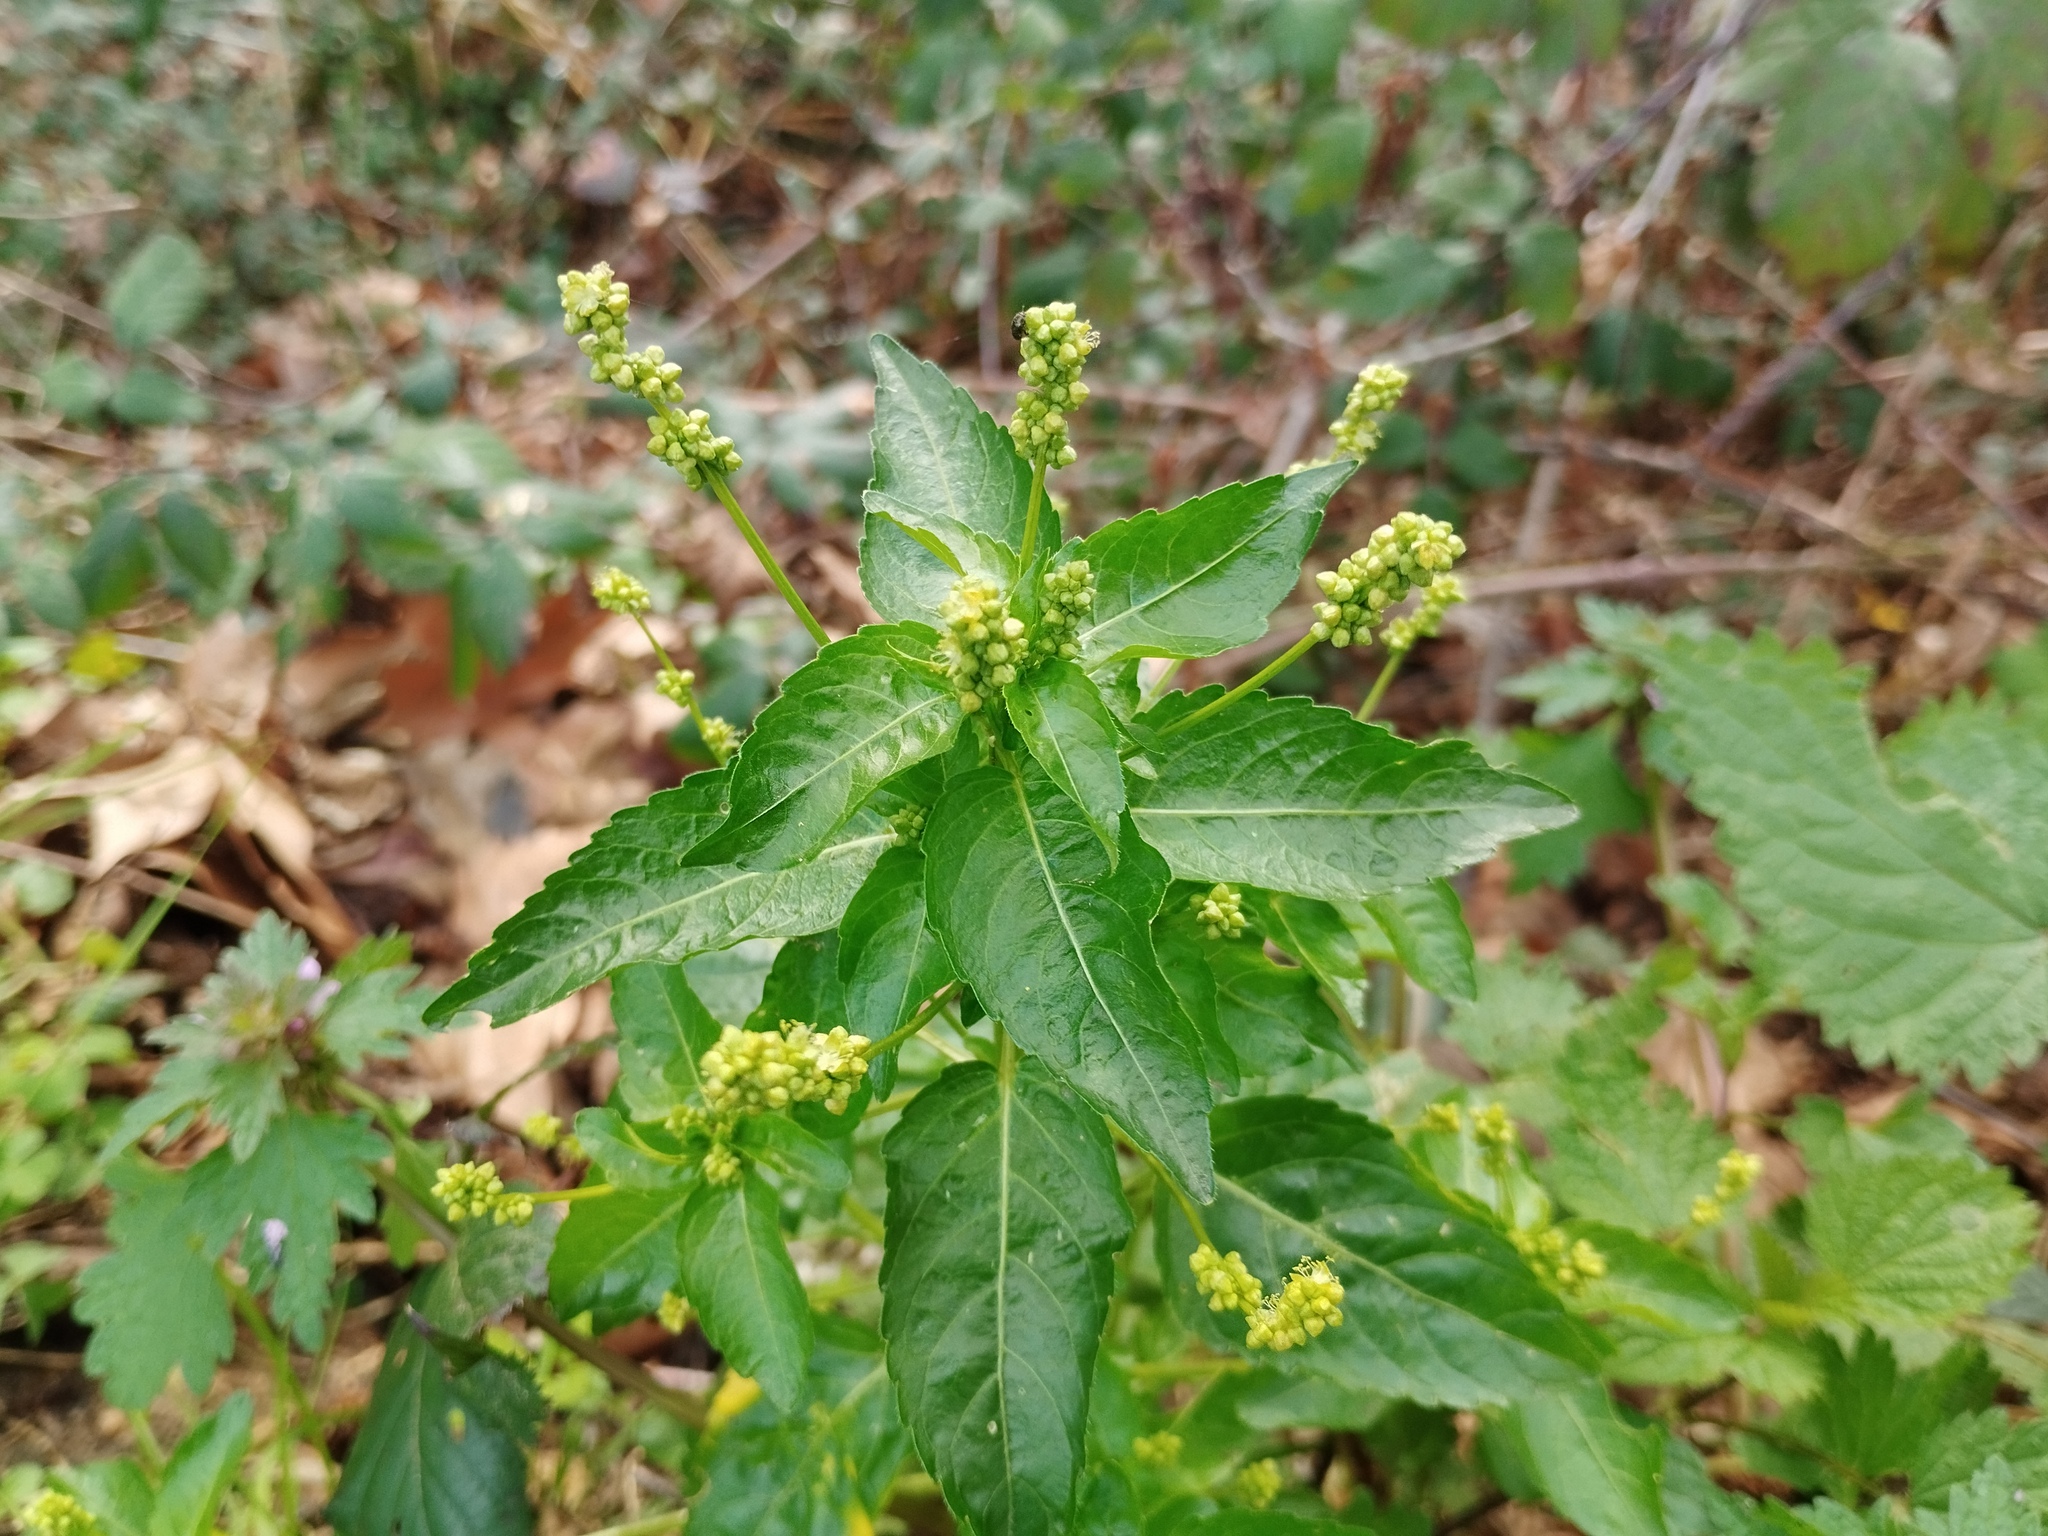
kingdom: Plantae
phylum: Tracheophyta
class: Magnoliopsida
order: Malpighiales
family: Euphorbiaceae
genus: Mercurialis
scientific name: Mercurialis annua
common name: Annual mercury
